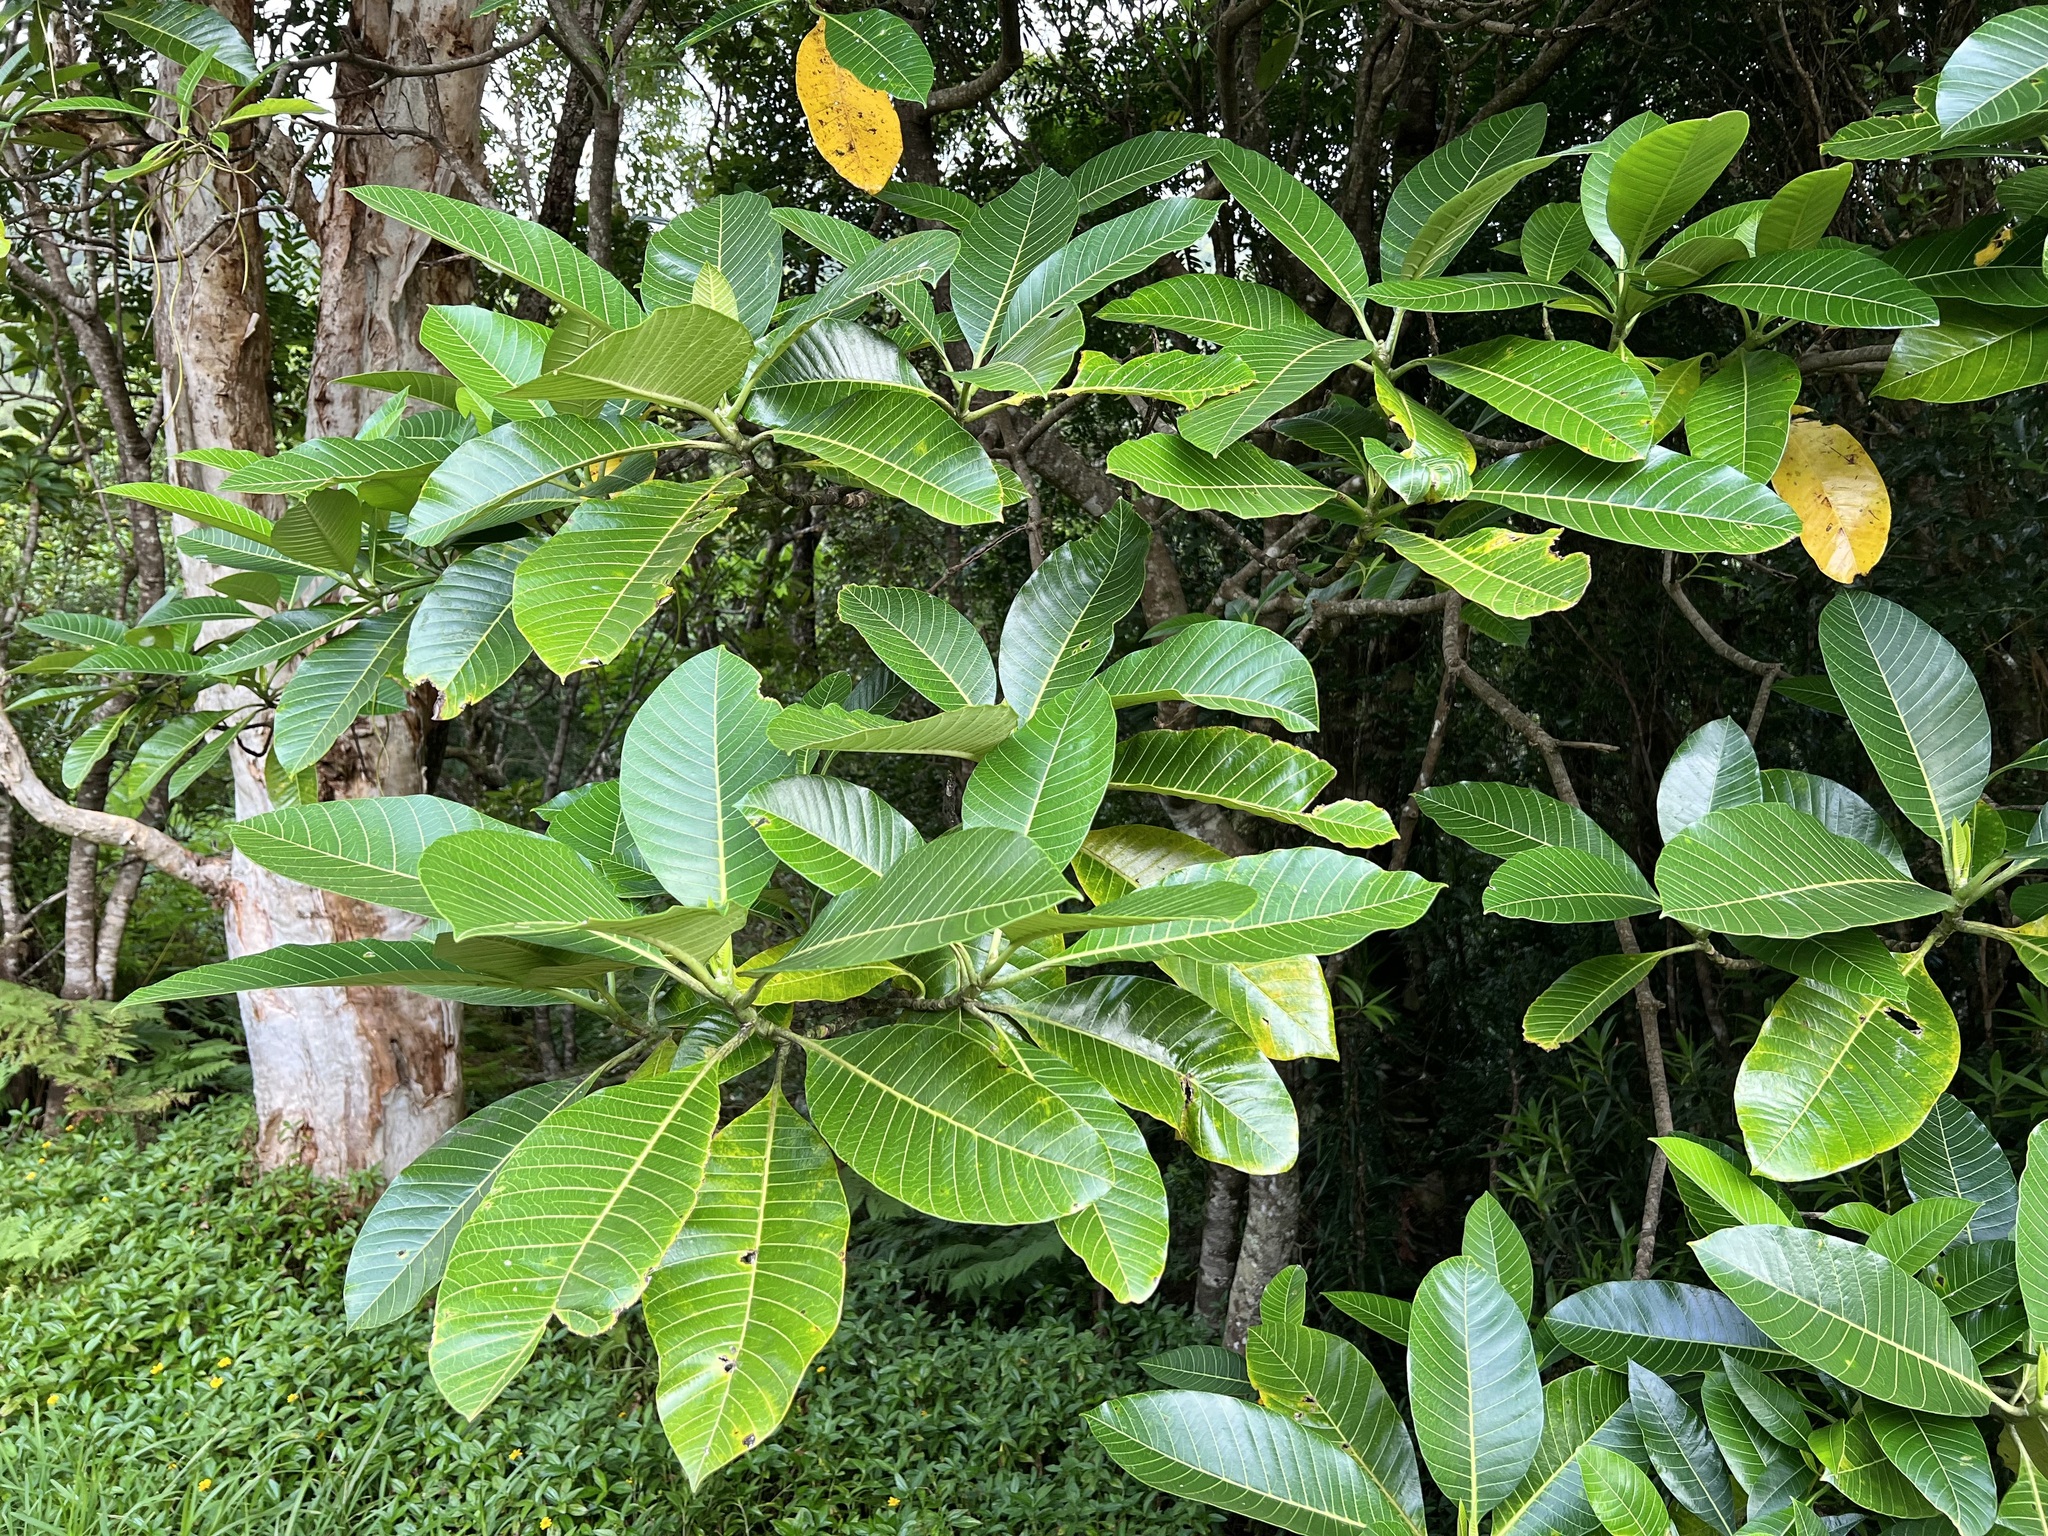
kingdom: Plantae
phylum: Tracheophyta
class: Magnoliopsida
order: Gentianales
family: Apocynaceae
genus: Alstonia
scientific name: Alstonia costata
